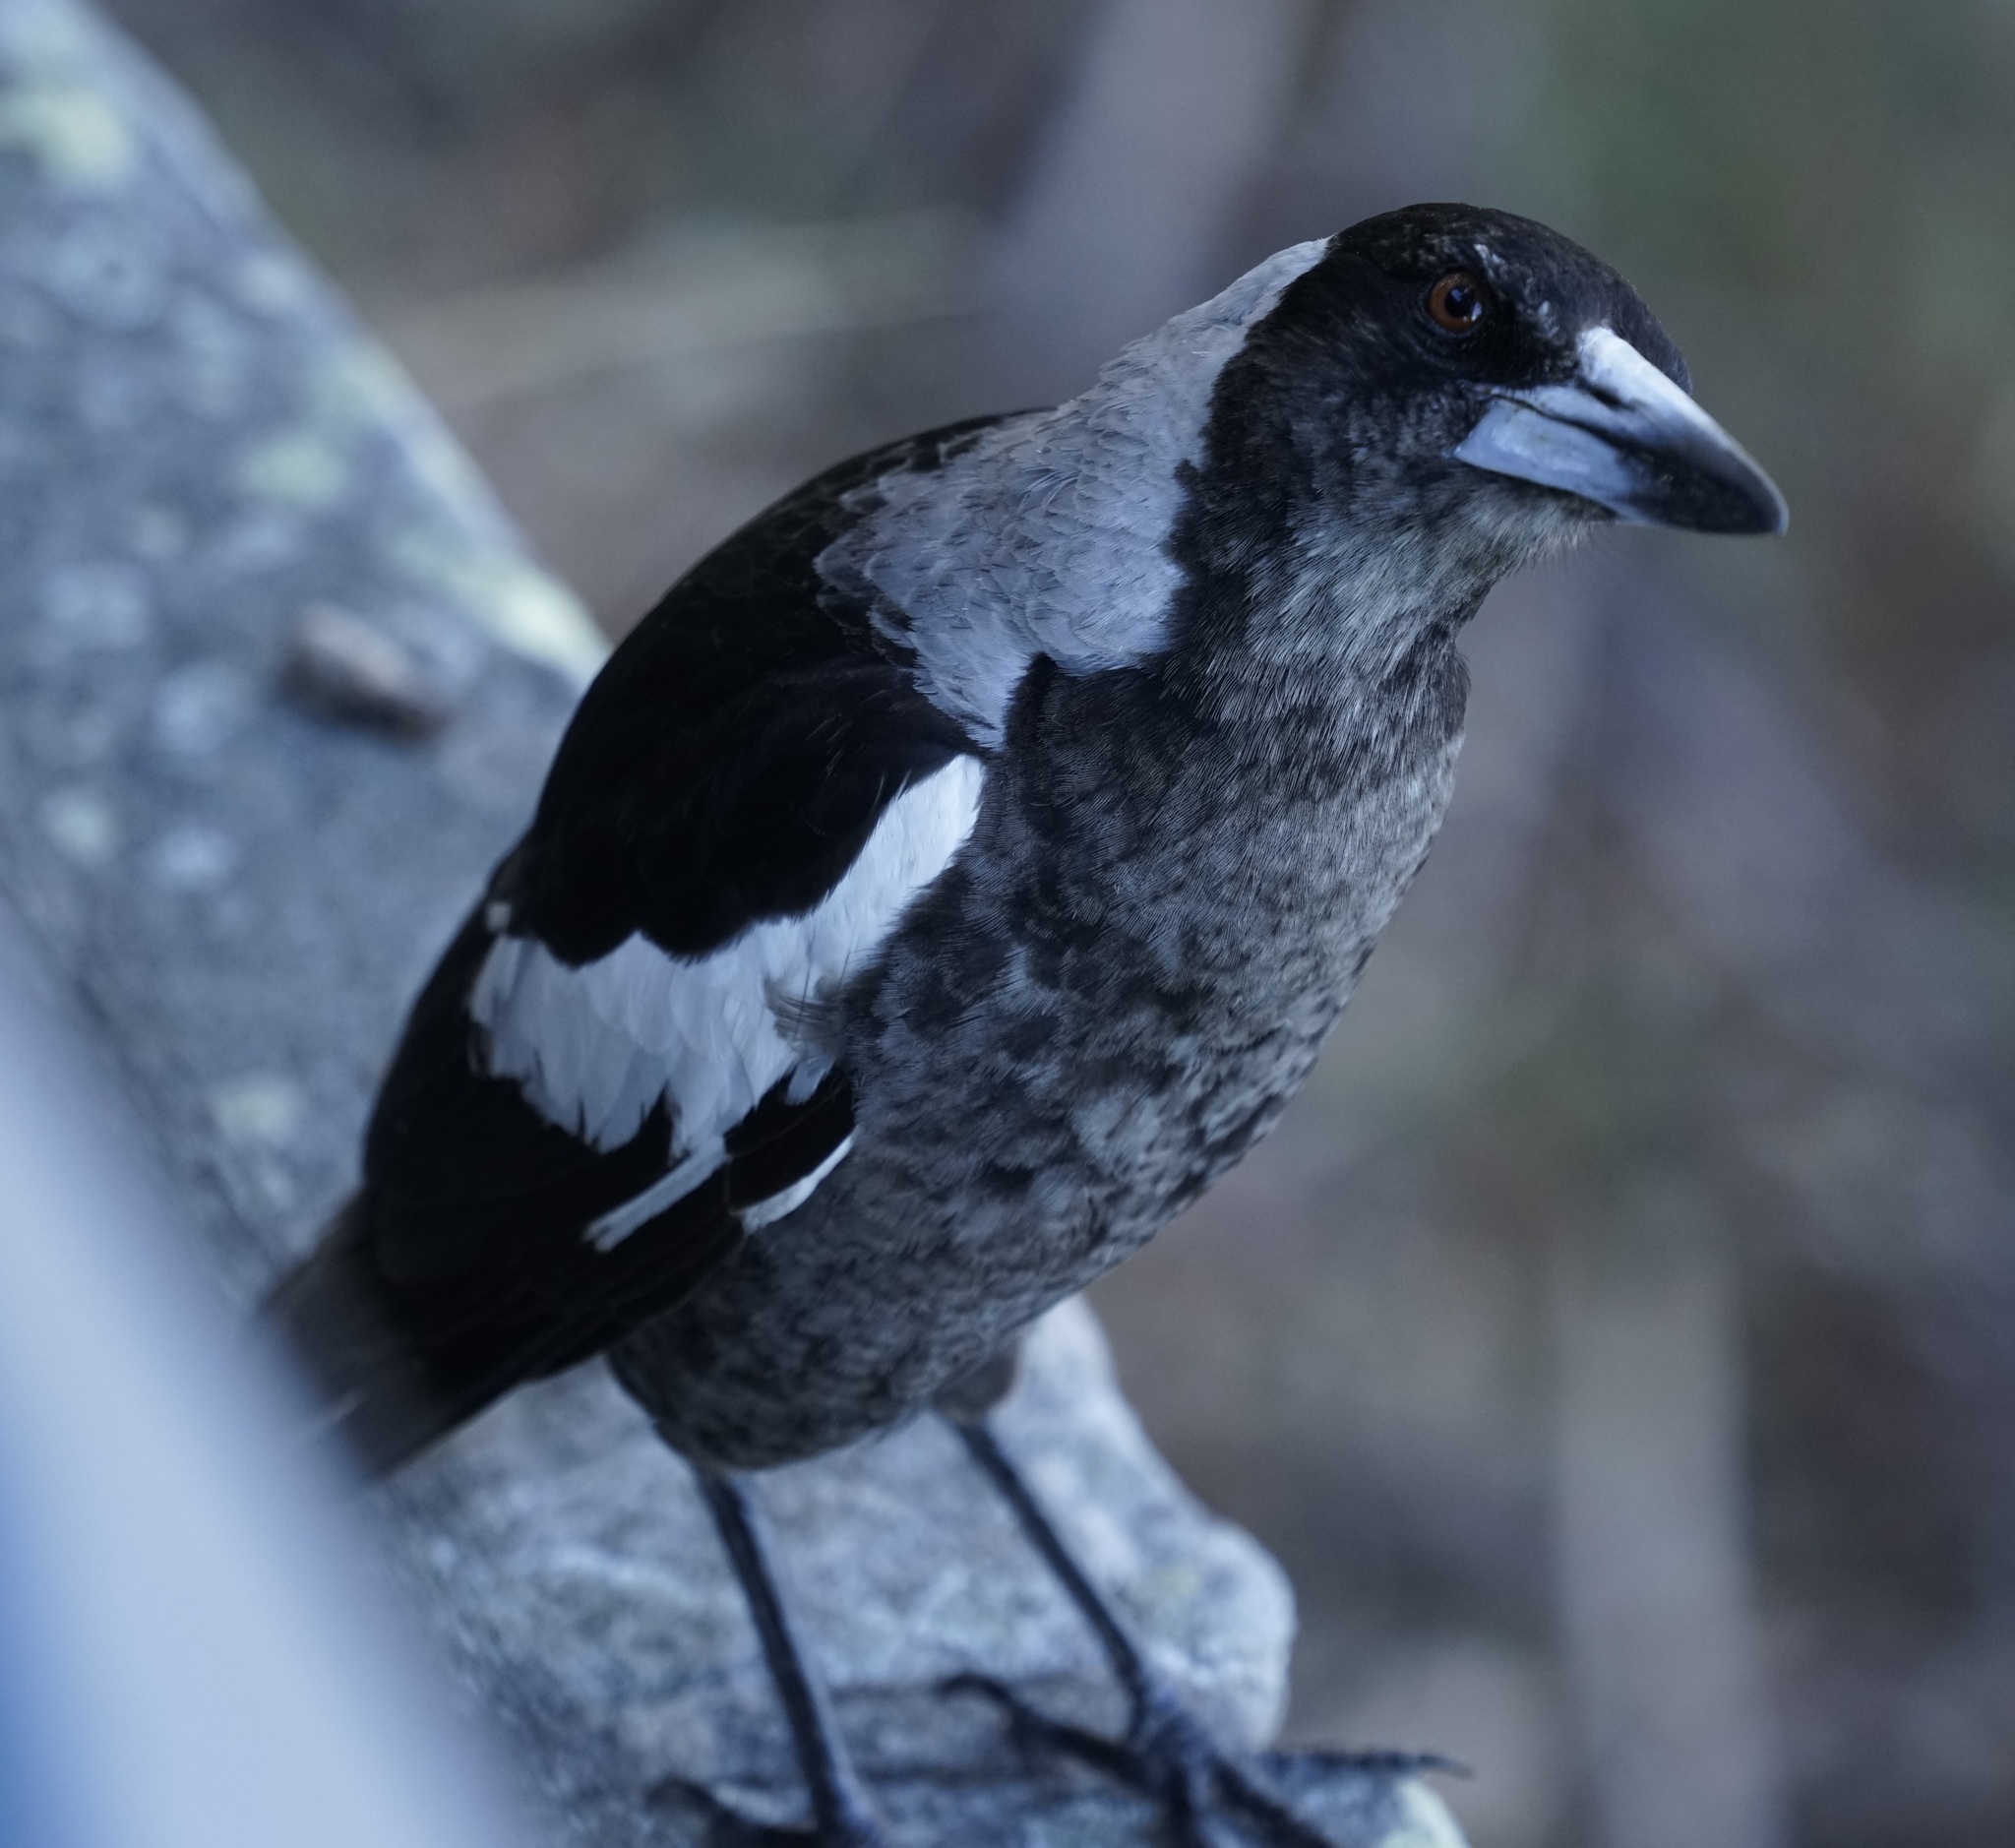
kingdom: Animalia
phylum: Chordata
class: Aves
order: Passeriformes
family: Cracticidae
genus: Gymnorhina
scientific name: Gymnorhina tibicen
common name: Australian magpie
